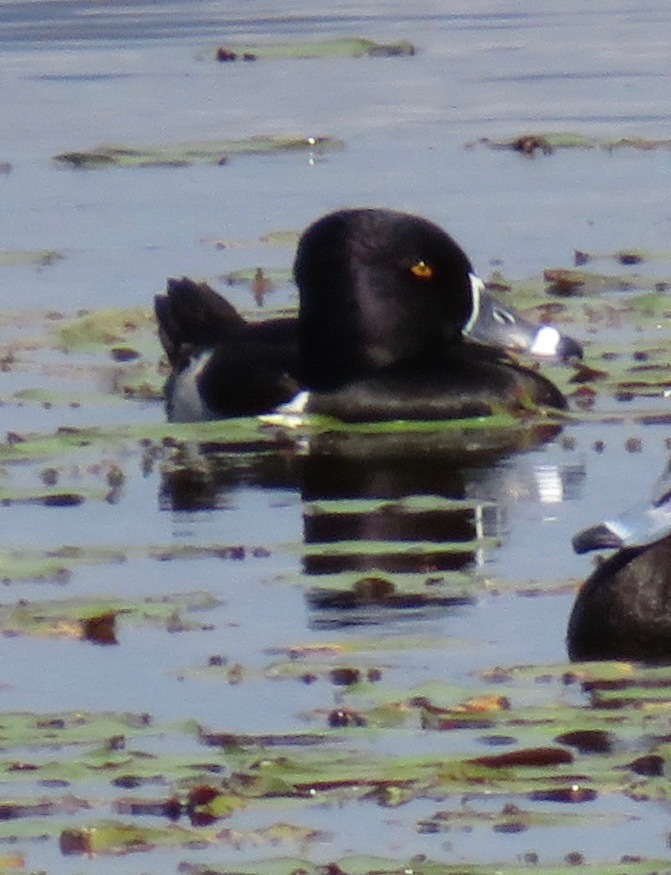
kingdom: Animalia
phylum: Chordata
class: Aves
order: Anseriformes
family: Anatidae
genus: Aythya
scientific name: Aythya collaris
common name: Ring-necked duck
